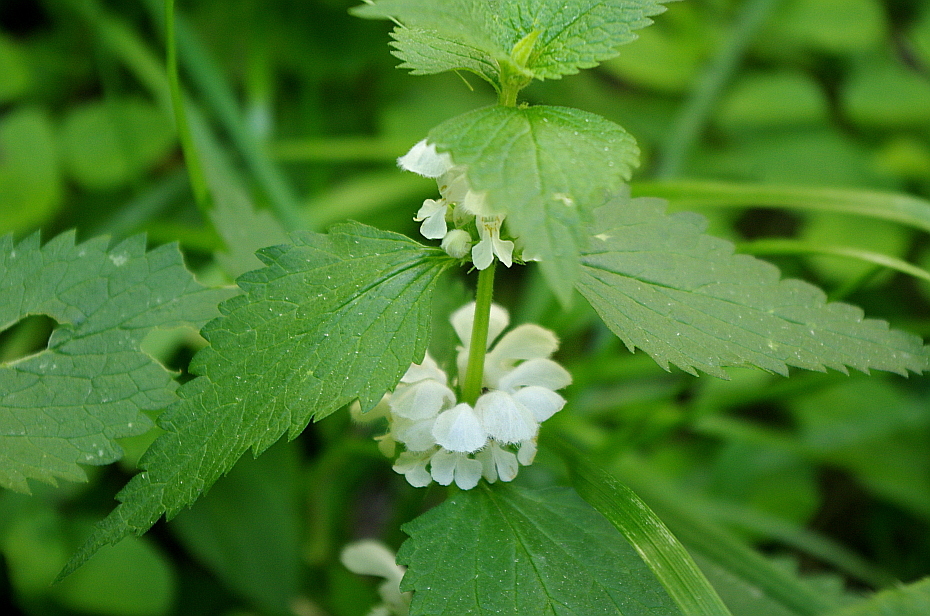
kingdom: Plantae
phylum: Tracheophyta
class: Magnoliopsida
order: Lamiales
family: Lamiaceae
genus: Lamium
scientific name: Lamium album
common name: White dead-nettle
